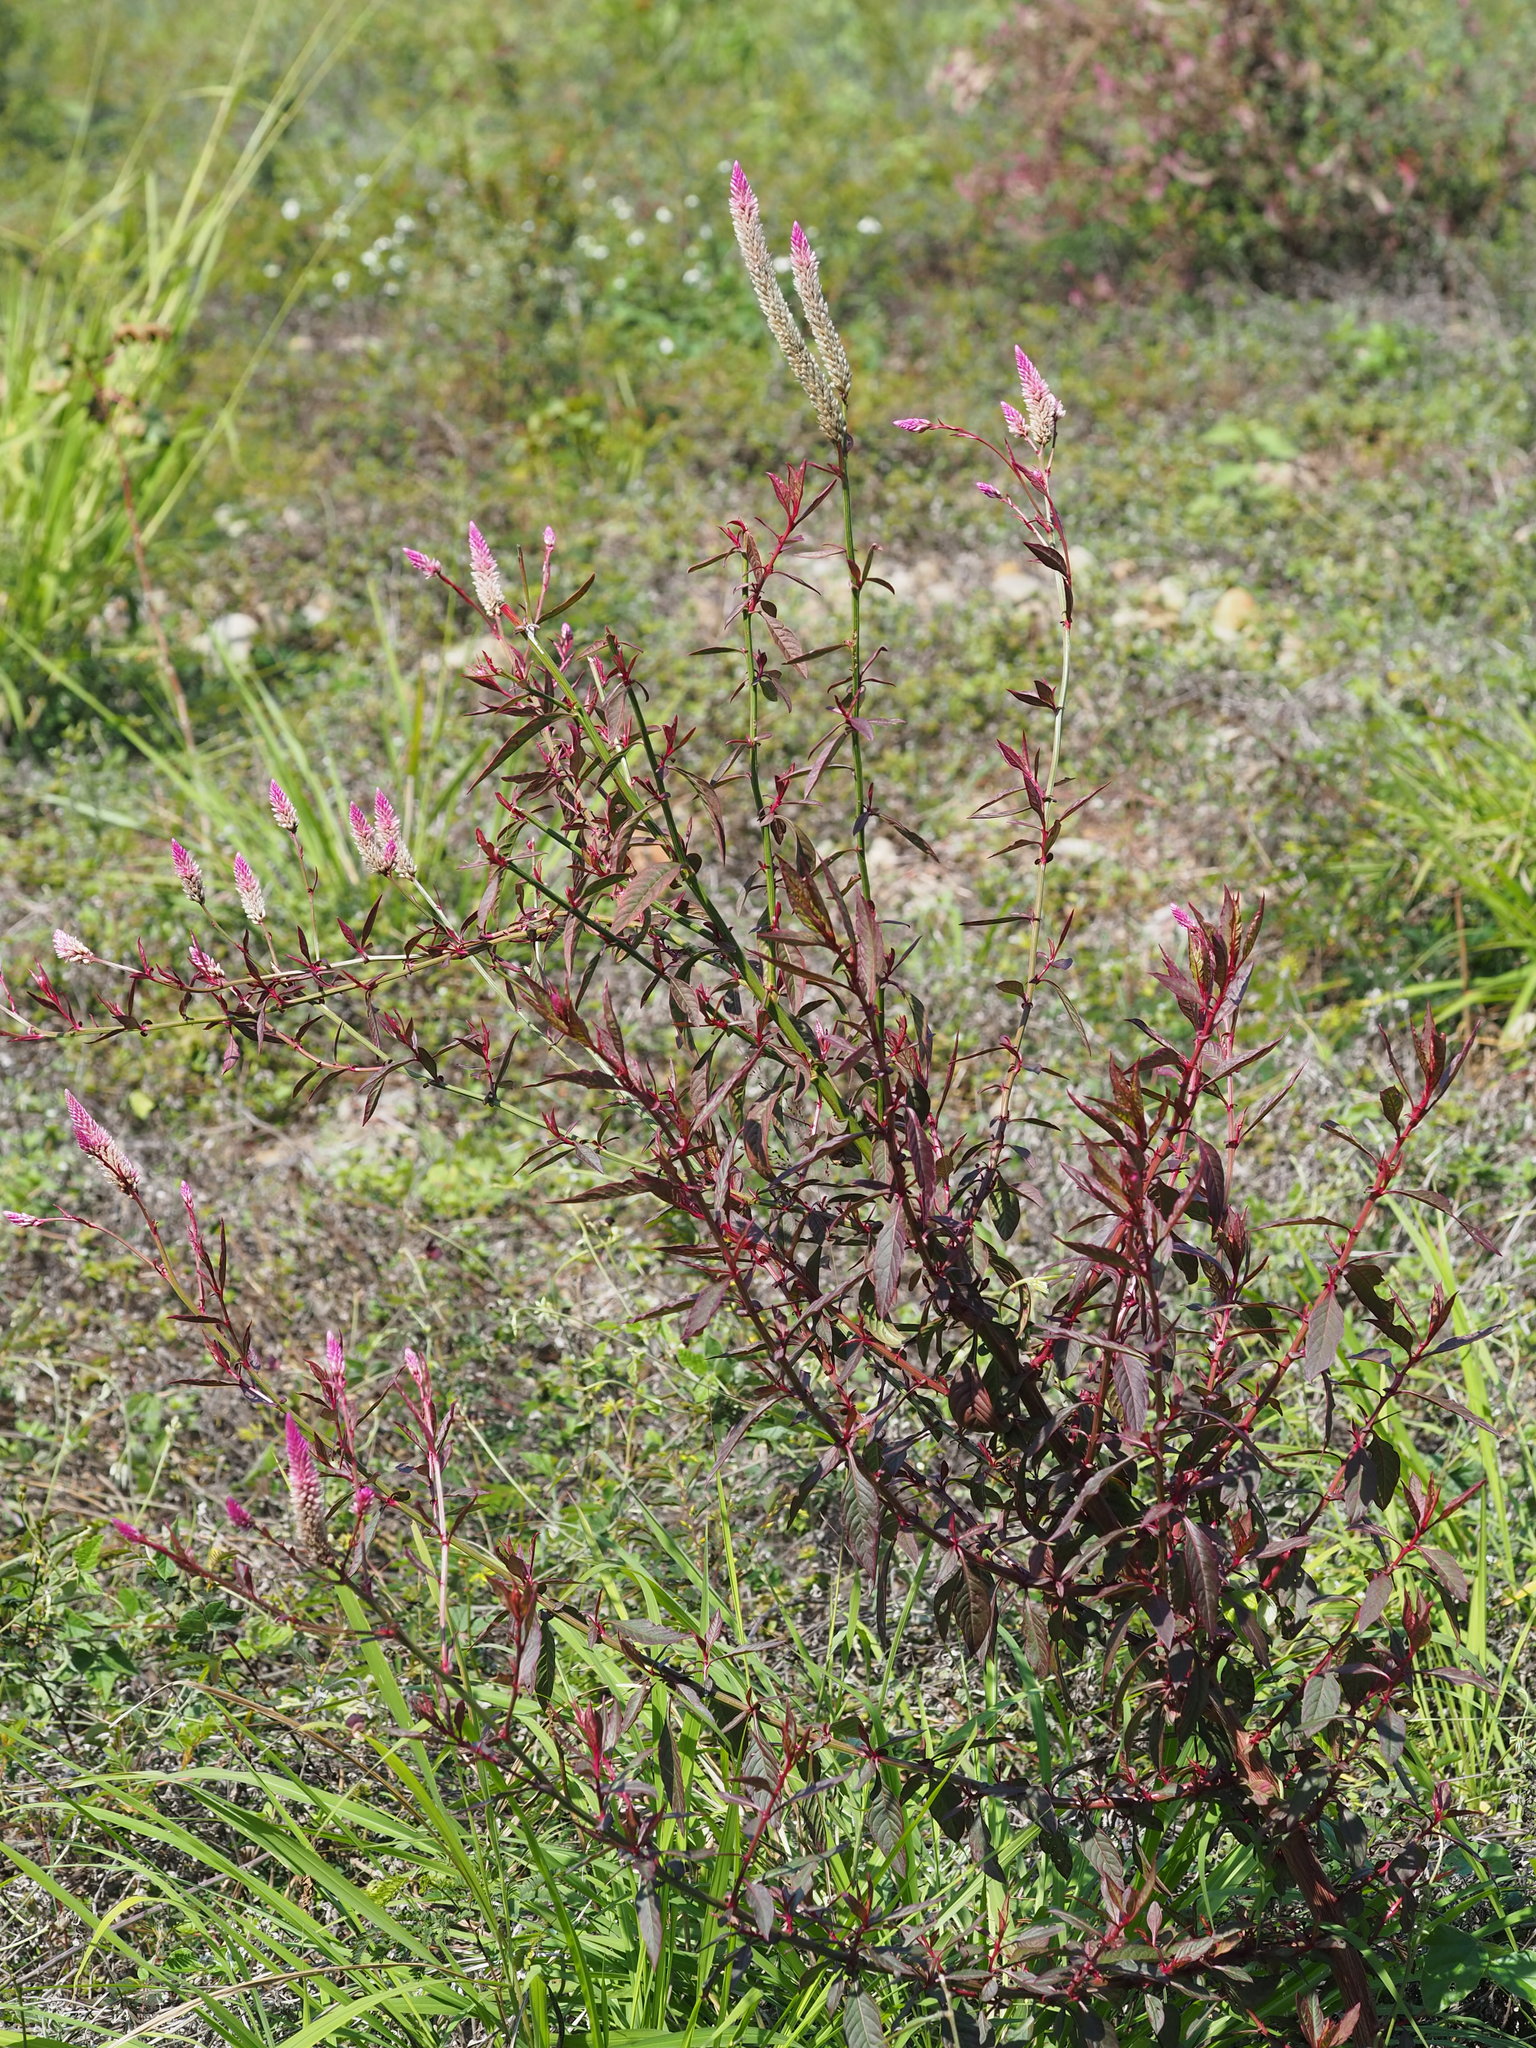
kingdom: Plantae
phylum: Tracheophyta
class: Magnoliopsida
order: Caryophyllales
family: Amaranthaceae
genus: Celosia
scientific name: Celosia argentea
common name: Feather cockscomb
